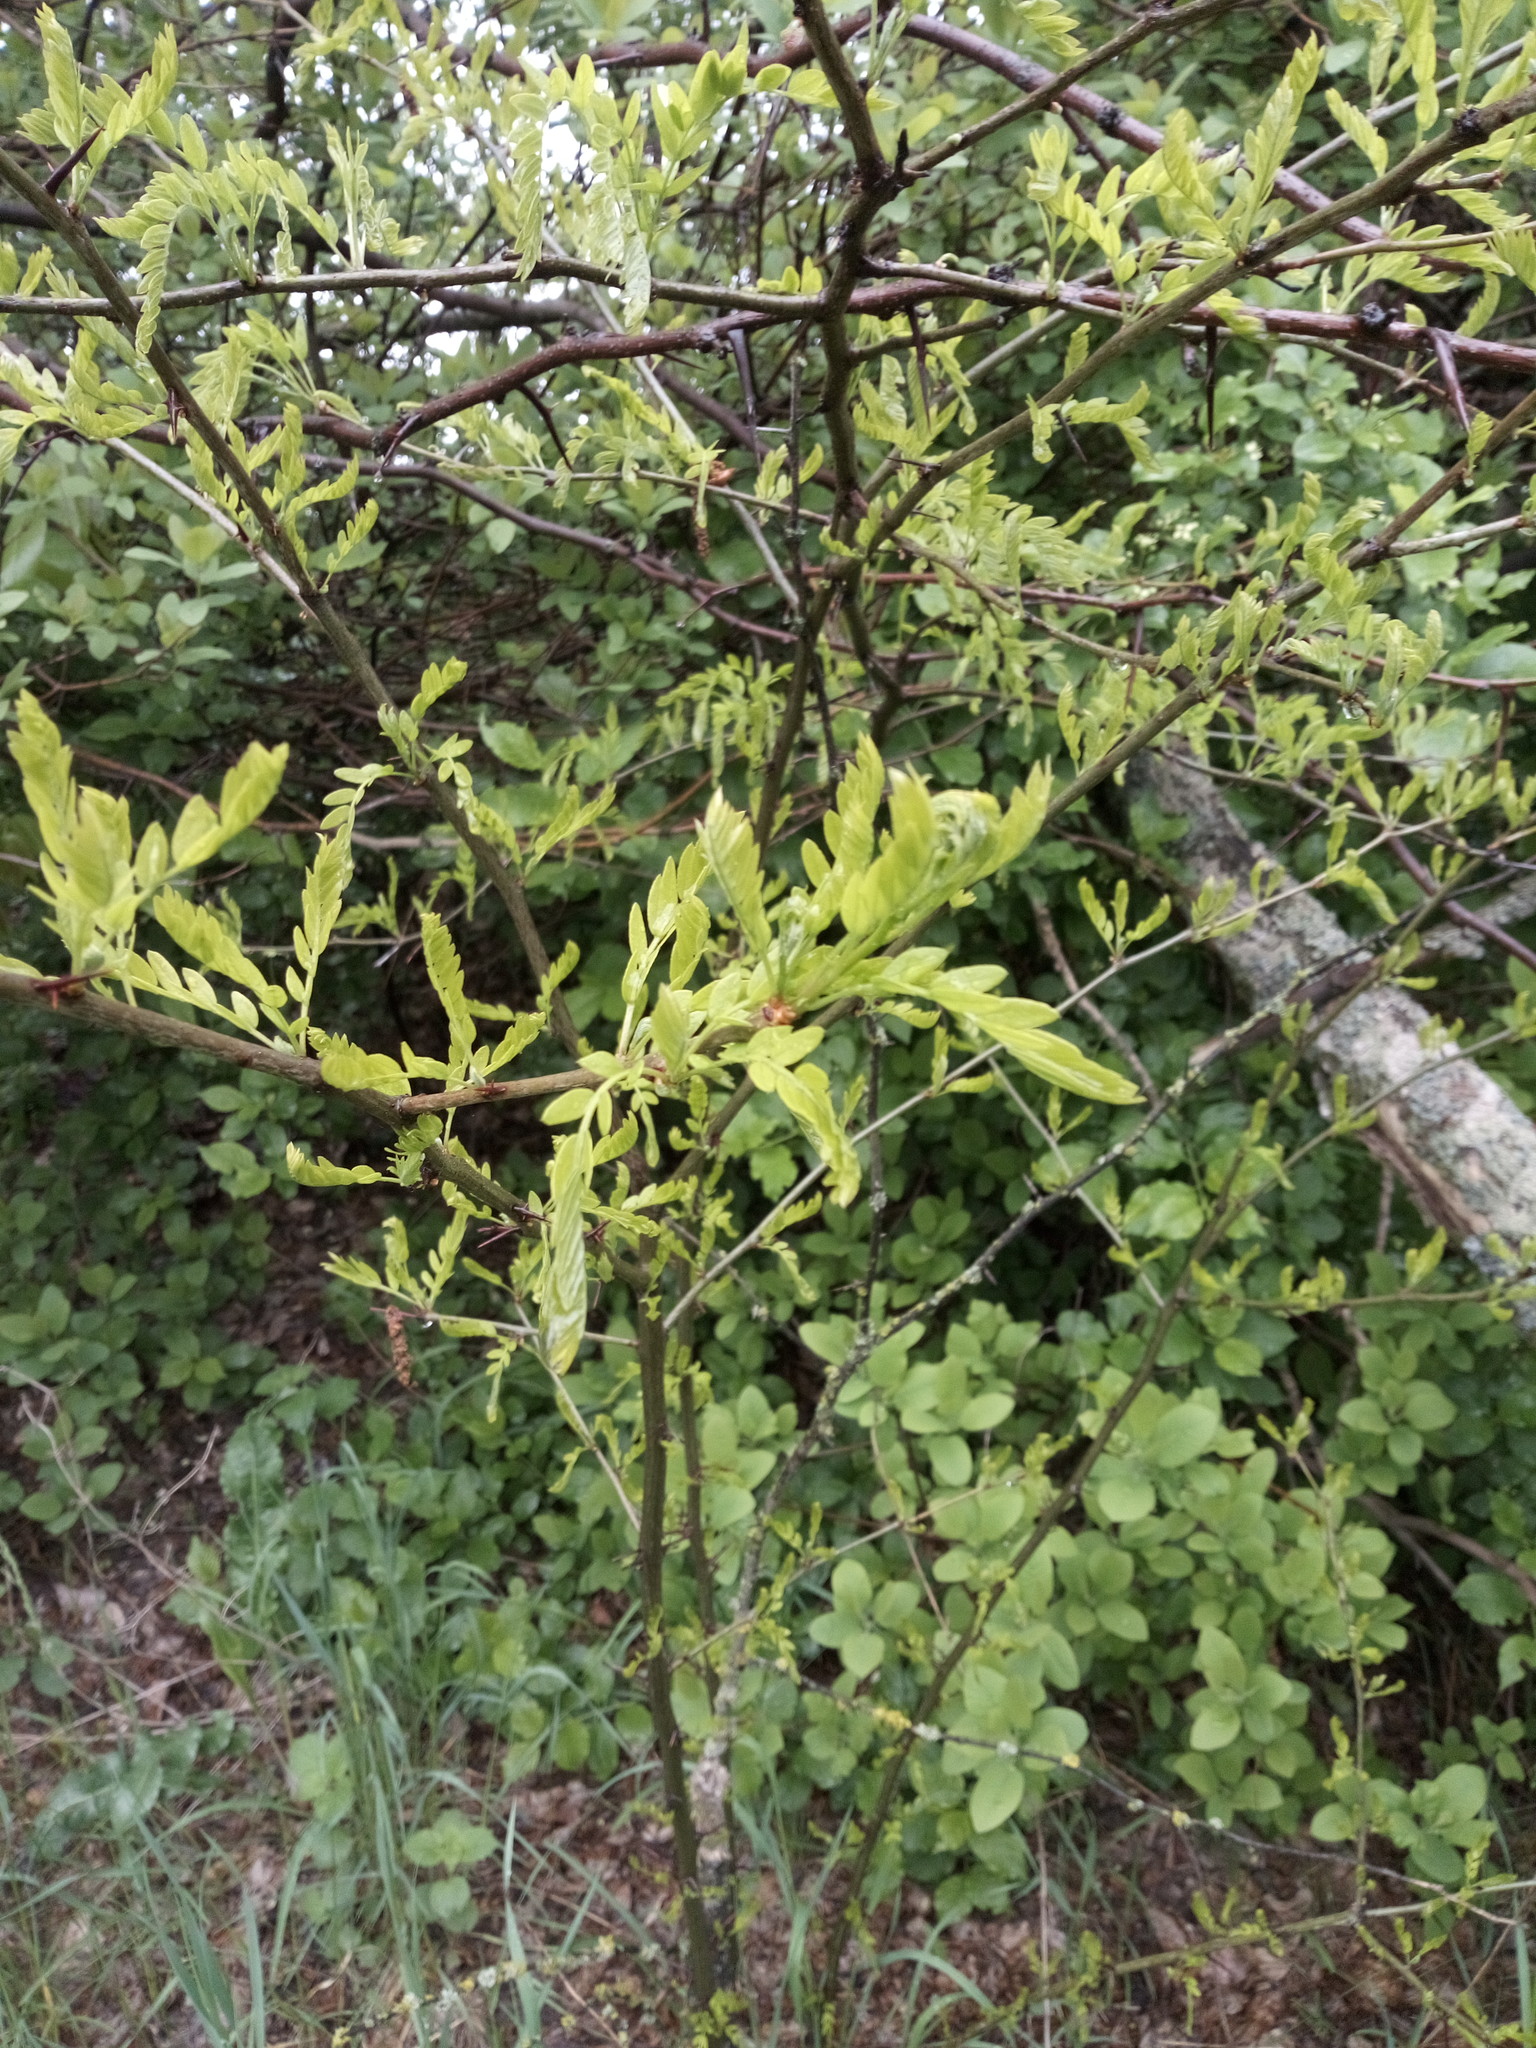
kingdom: Plantae
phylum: Tracheophyta
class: Magnoliopsida
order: Fabales
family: Fabaceae
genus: Gleditsia
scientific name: Gleditsia triacanthos
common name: Common honeylocust
